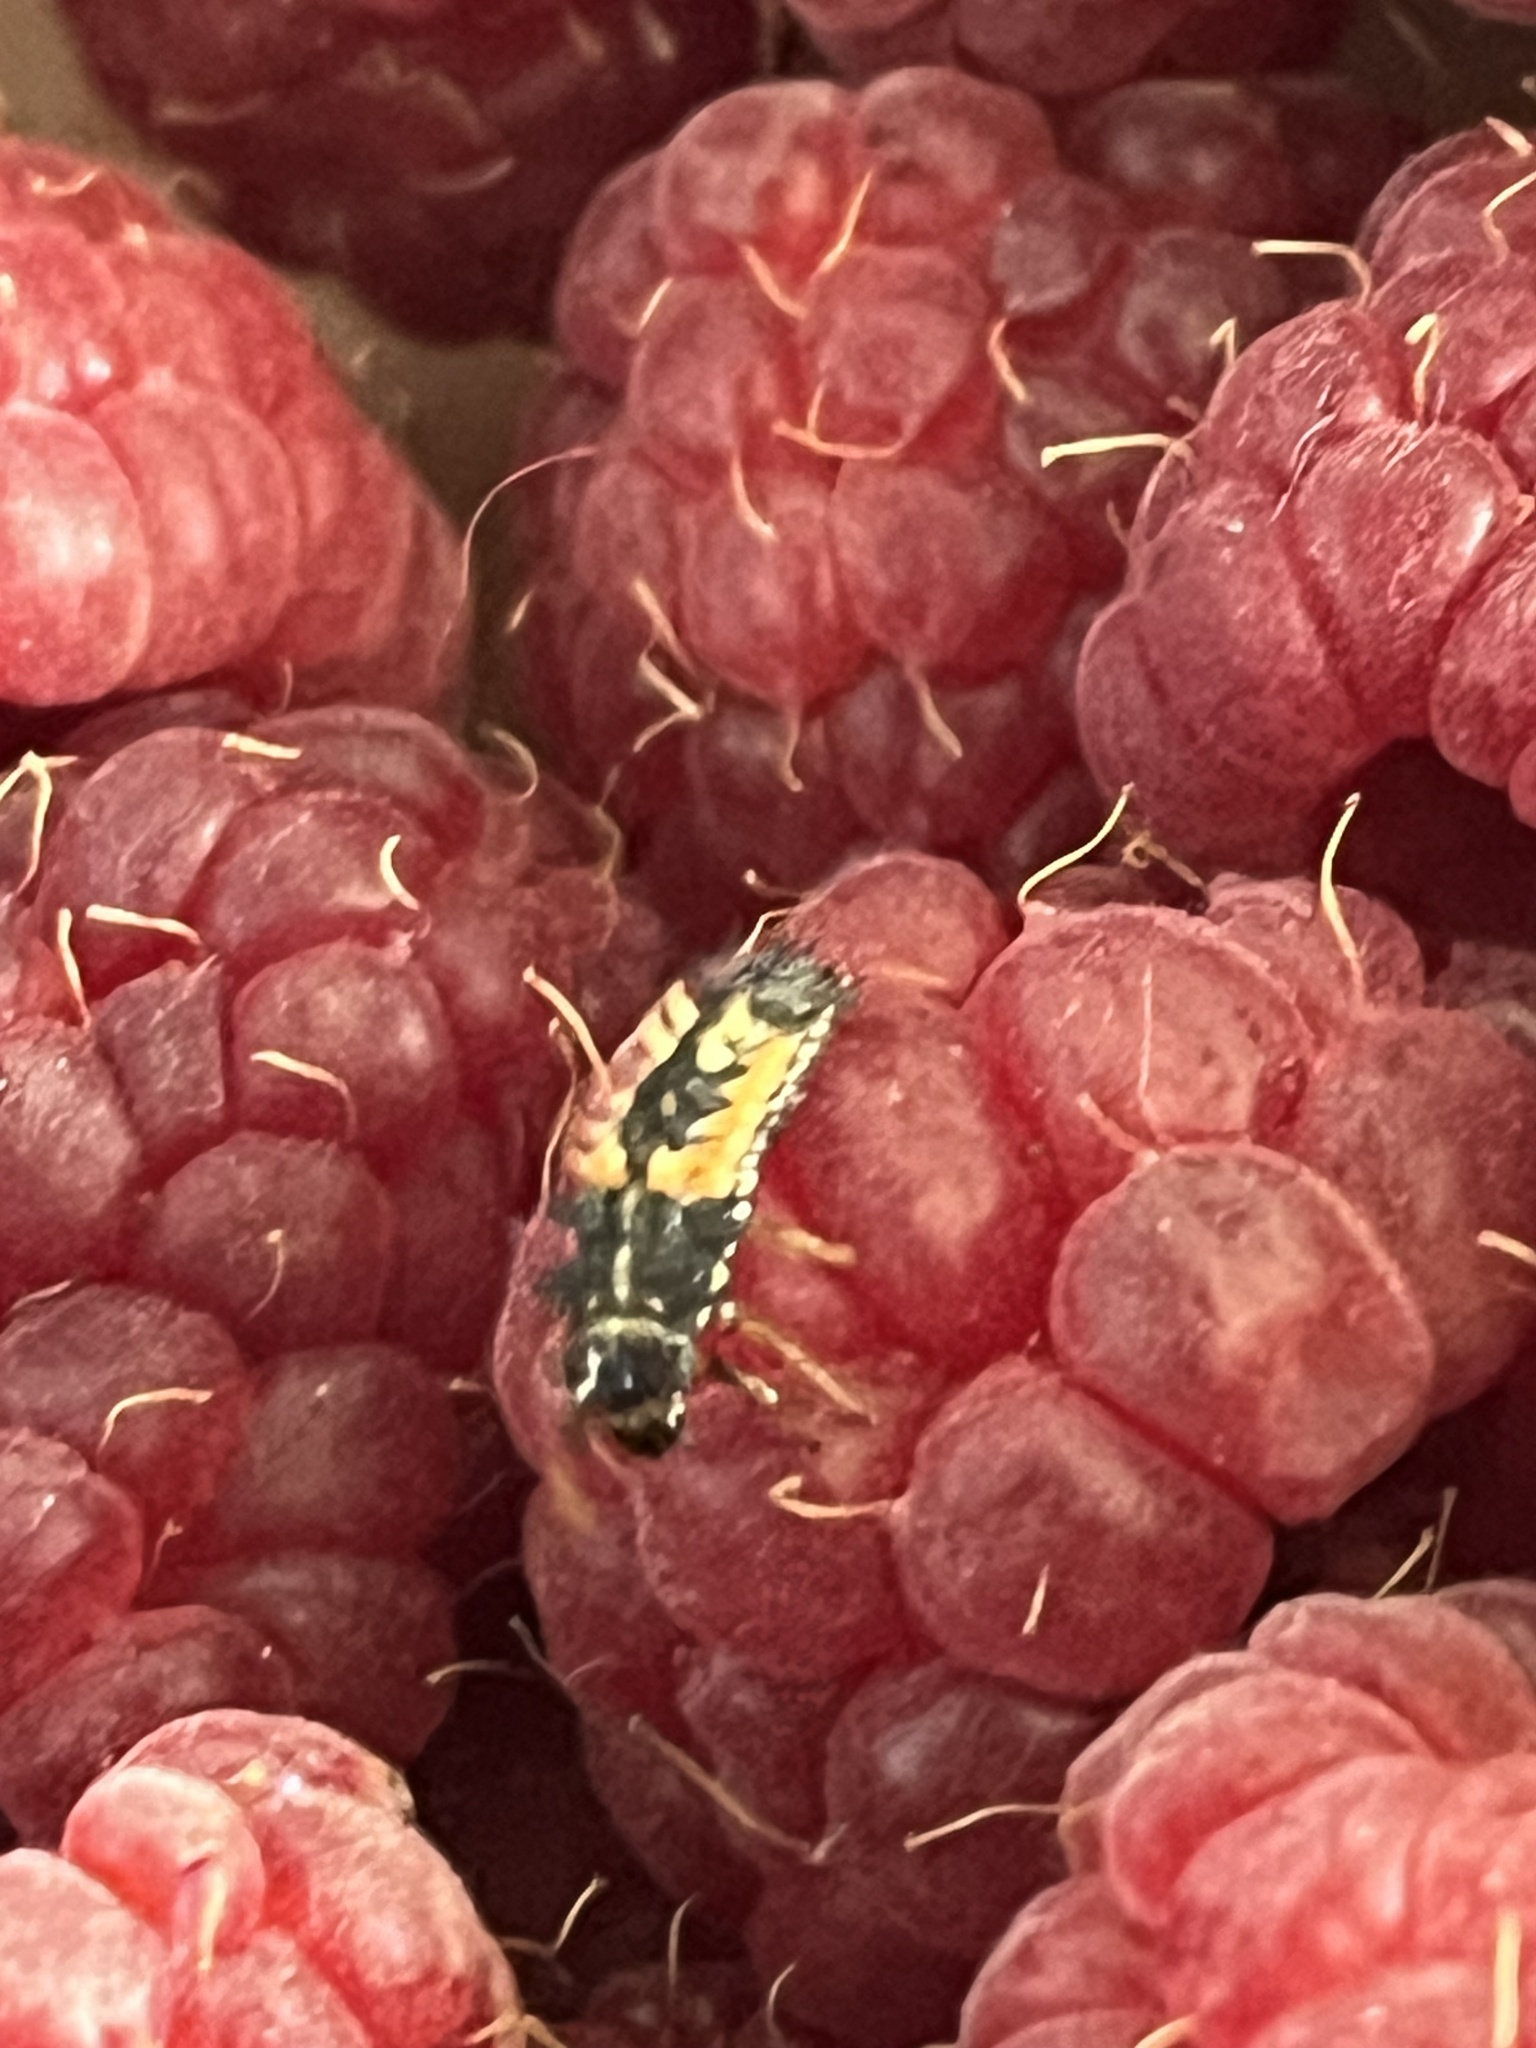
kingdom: Animalia
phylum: Arthropoda
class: Insecta
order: Coleoptera
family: Coccinellidae
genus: Harmonia
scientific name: Harmonia axyridis
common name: Harlequin ladybird
